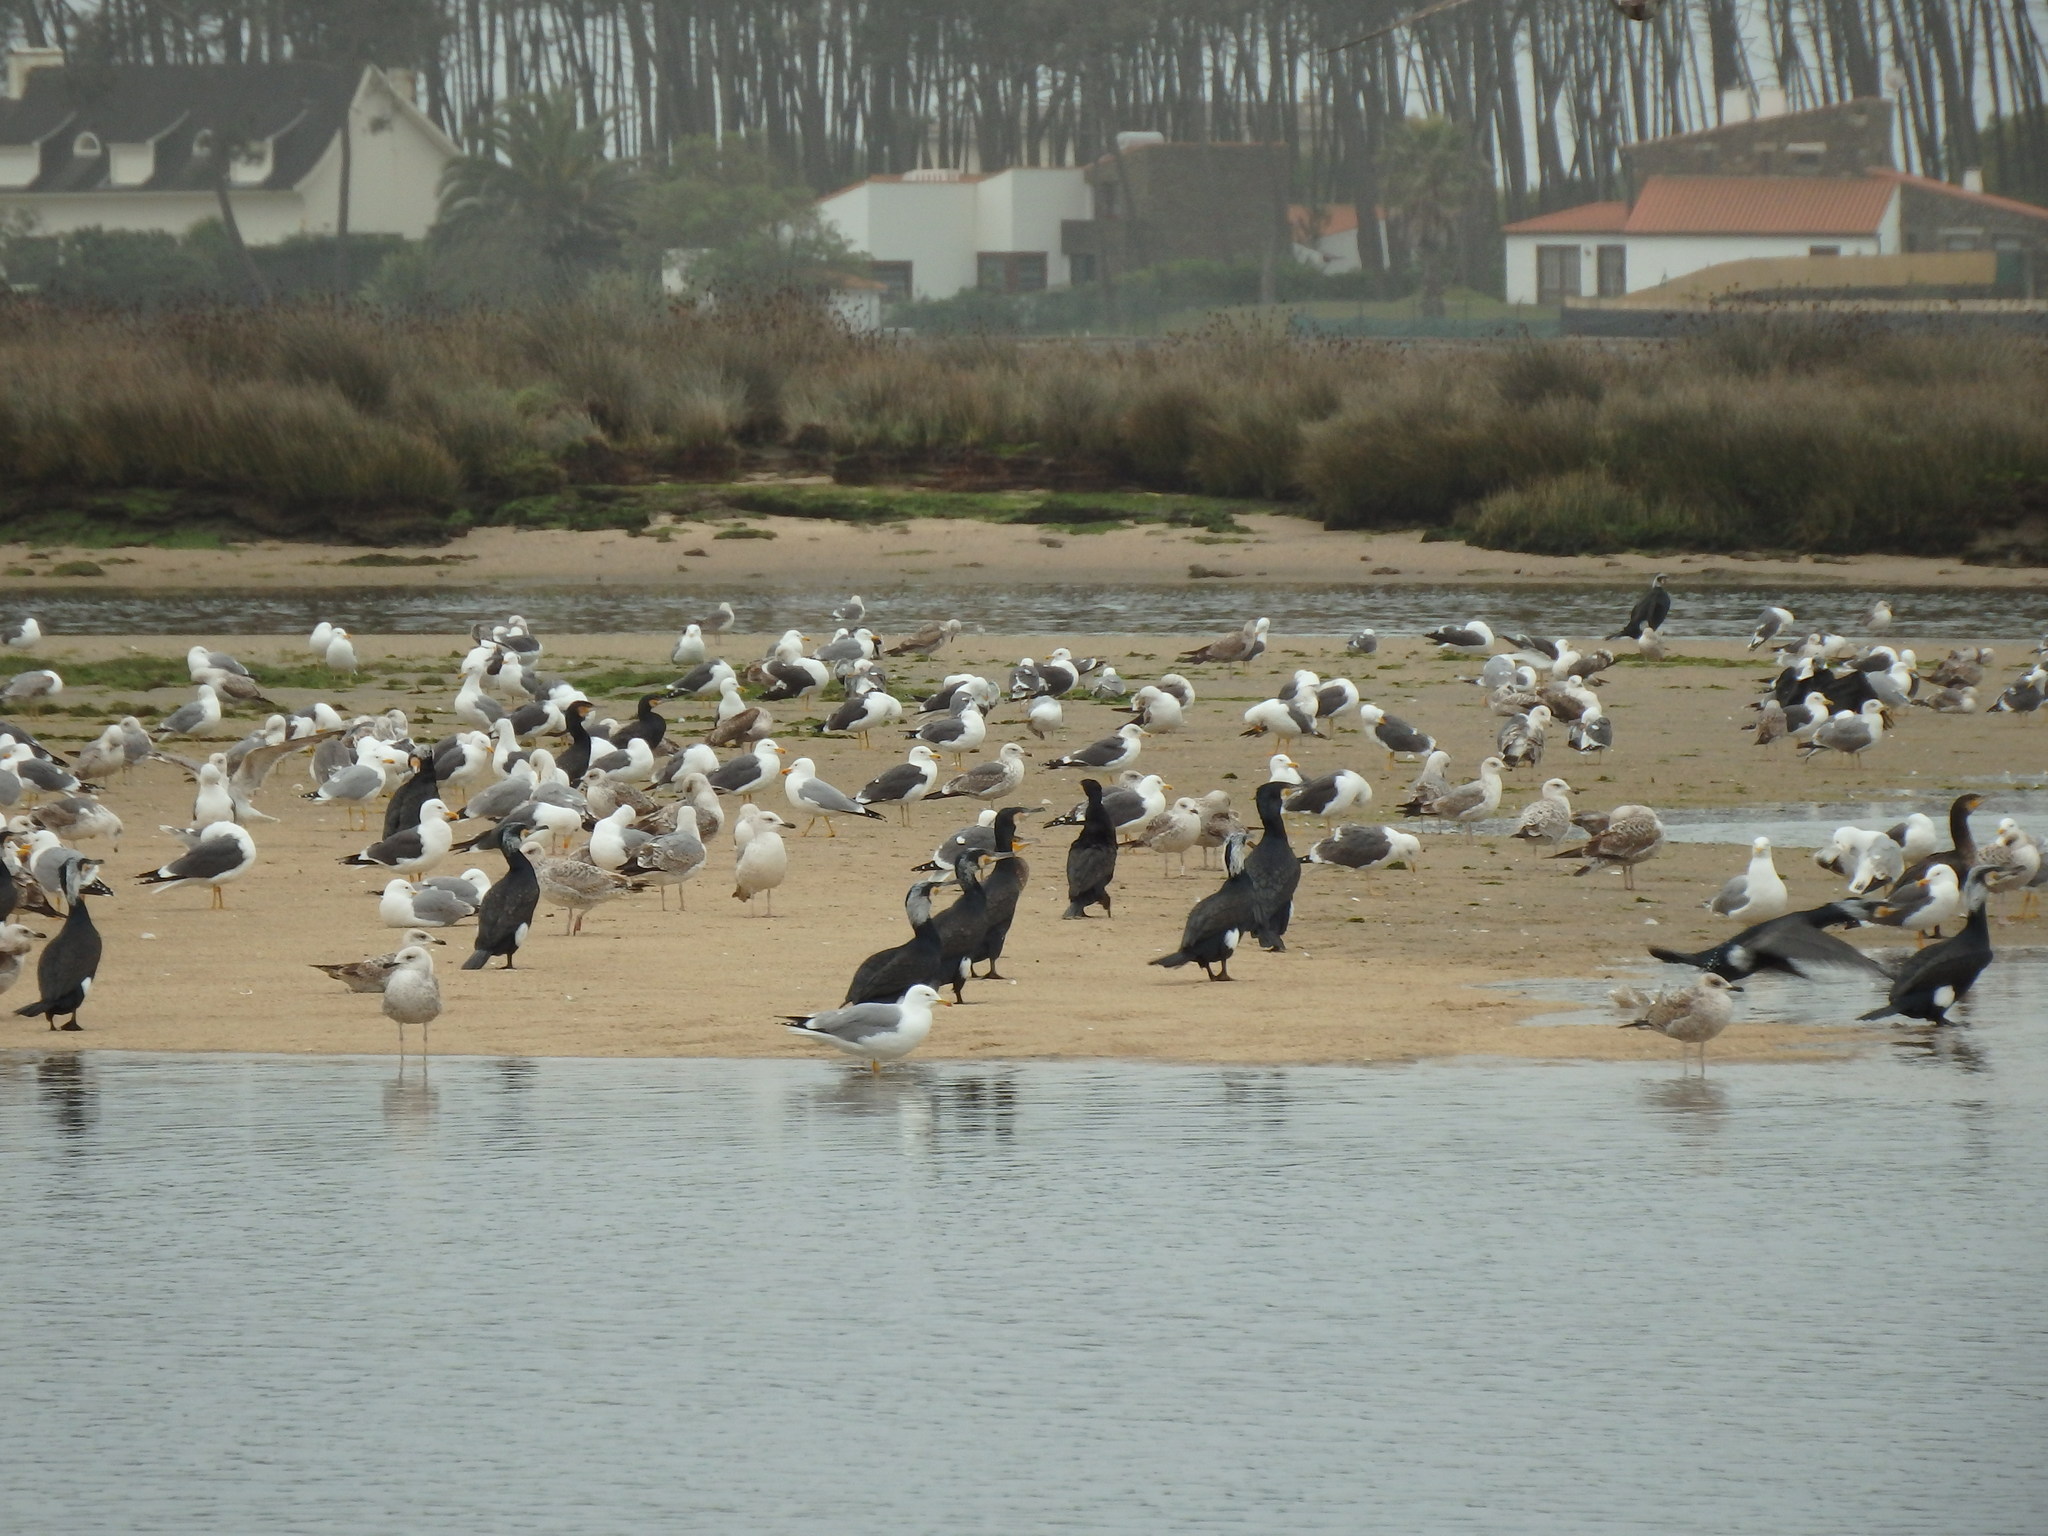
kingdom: Animalia
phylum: Chordata
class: Aves
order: Charadriiformes
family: Laridae
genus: Larus
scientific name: Larus michahellis
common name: Yellow-legged gull
